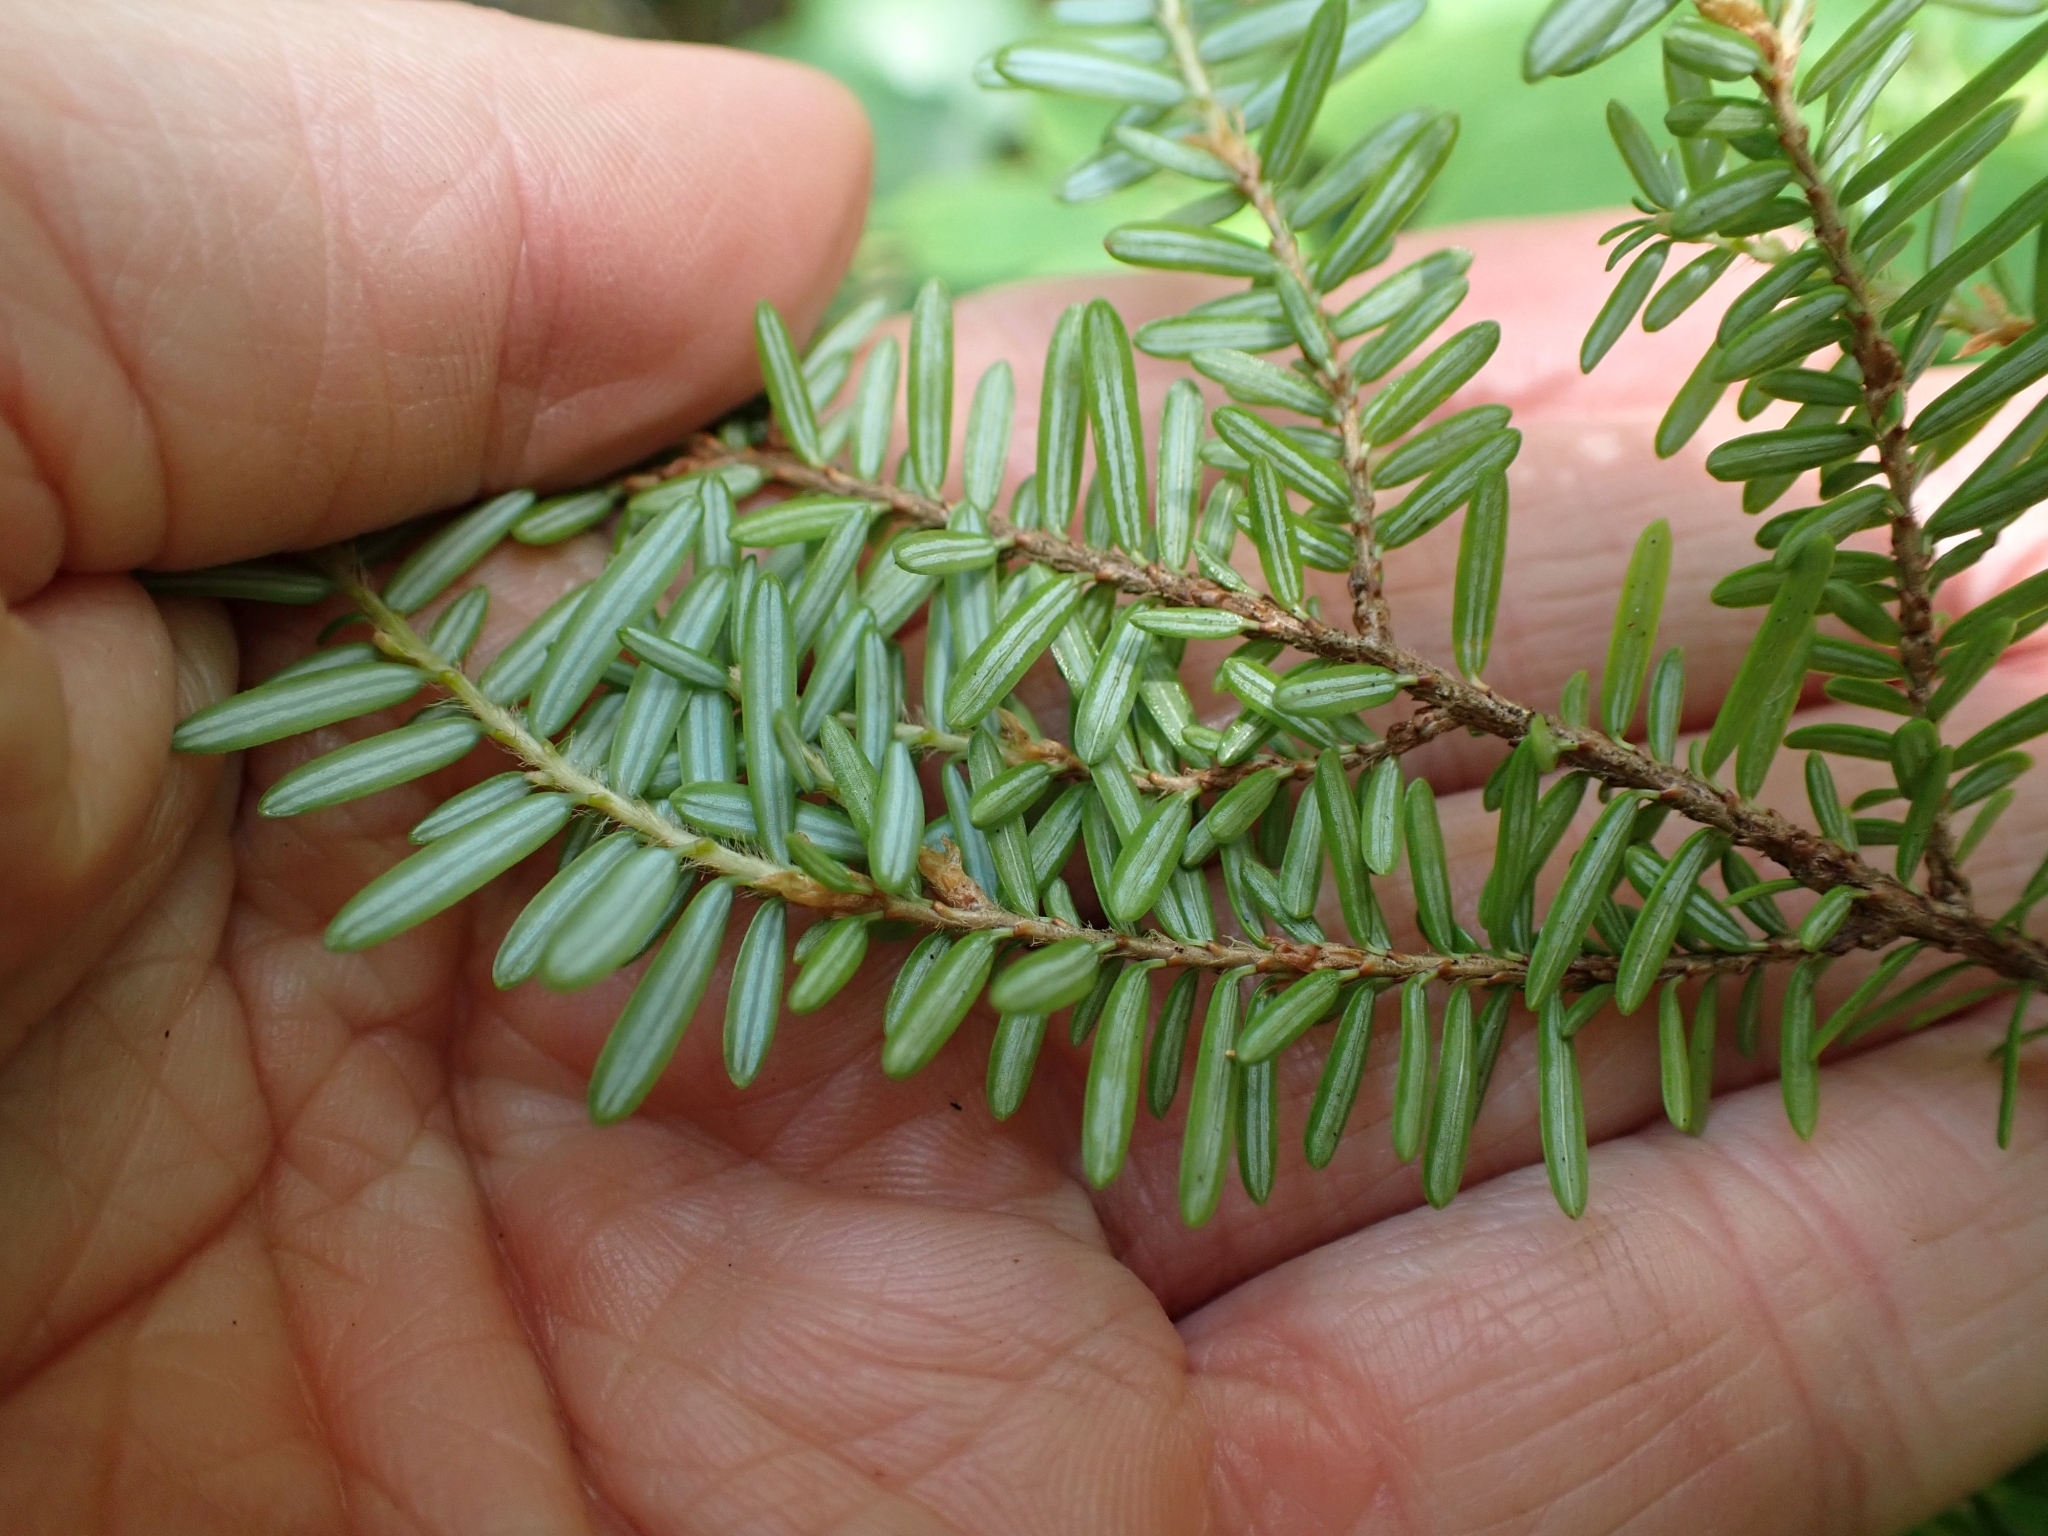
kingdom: Plantae
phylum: Tracheophyta
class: Pinopsida
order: Pinales
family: Pinaceae
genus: Tsuga
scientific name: Tsuga heterophylla
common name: Western hemlock
